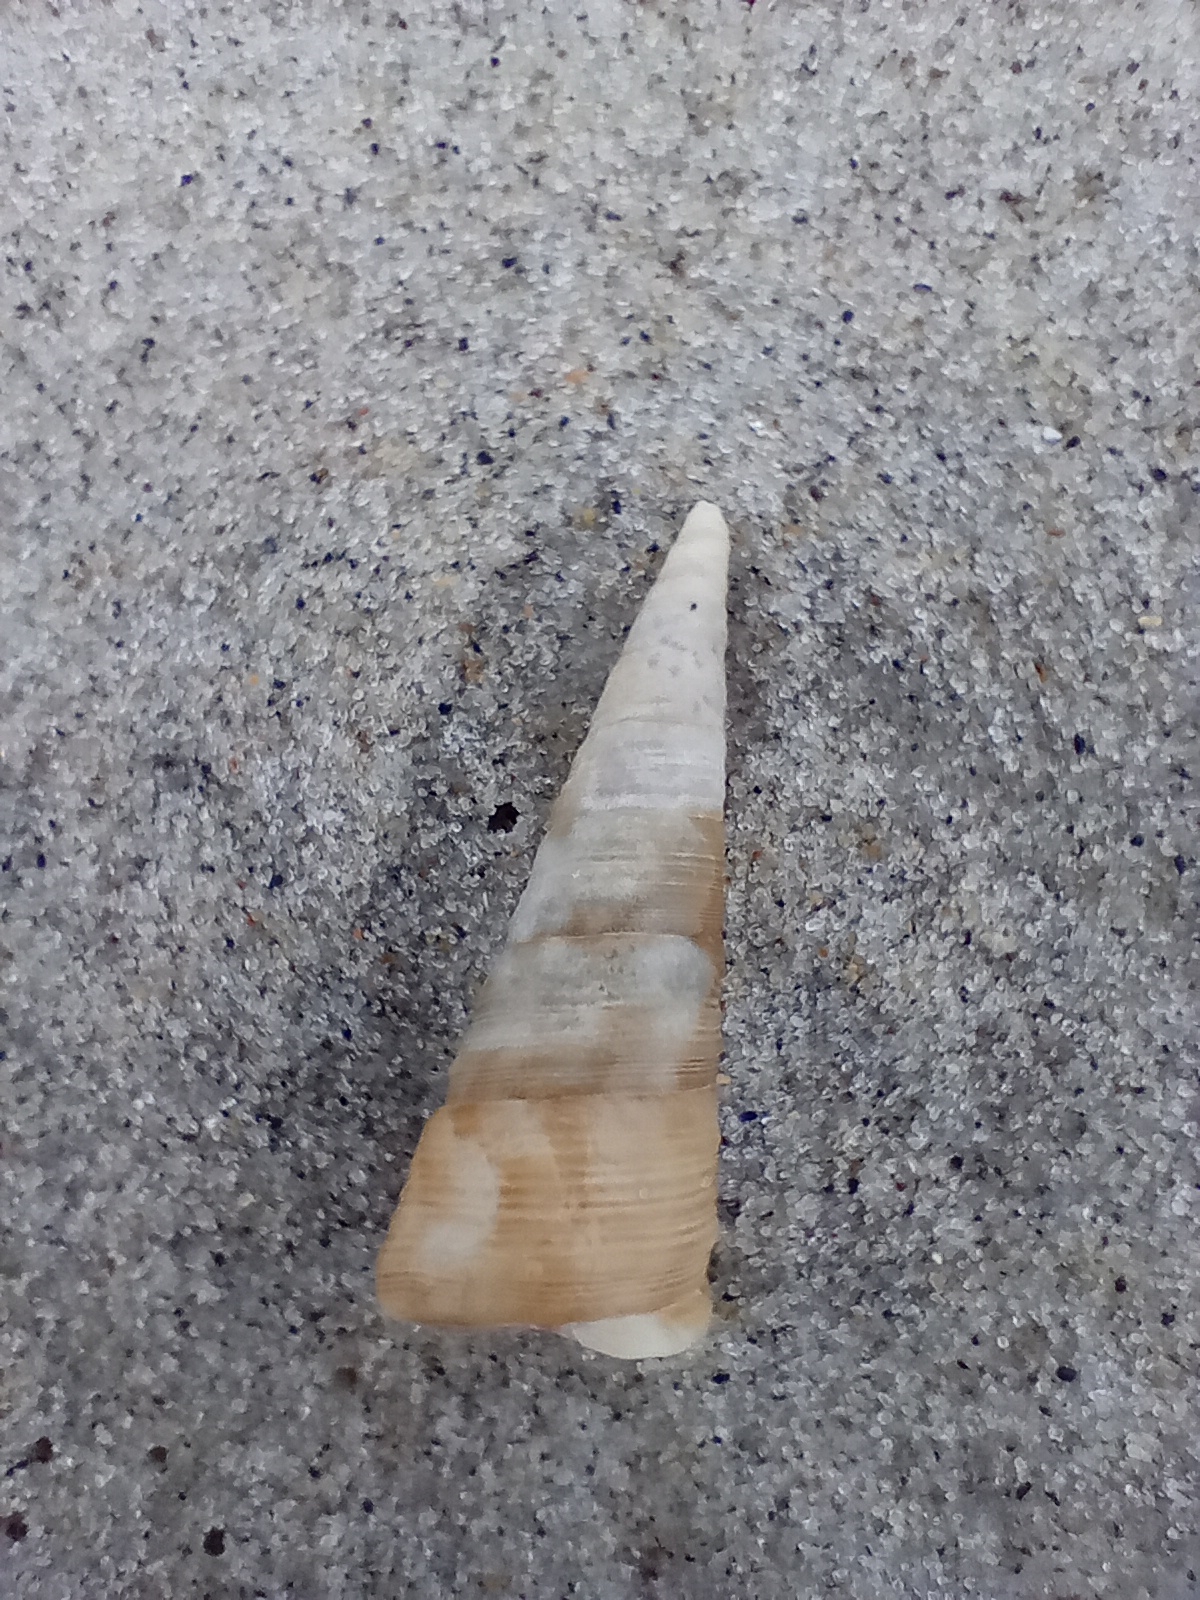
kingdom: Animalia
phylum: Mollusca
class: Gastropoda
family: Turritellidae
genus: Maoricolpus
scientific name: Maoricolpus roseus
